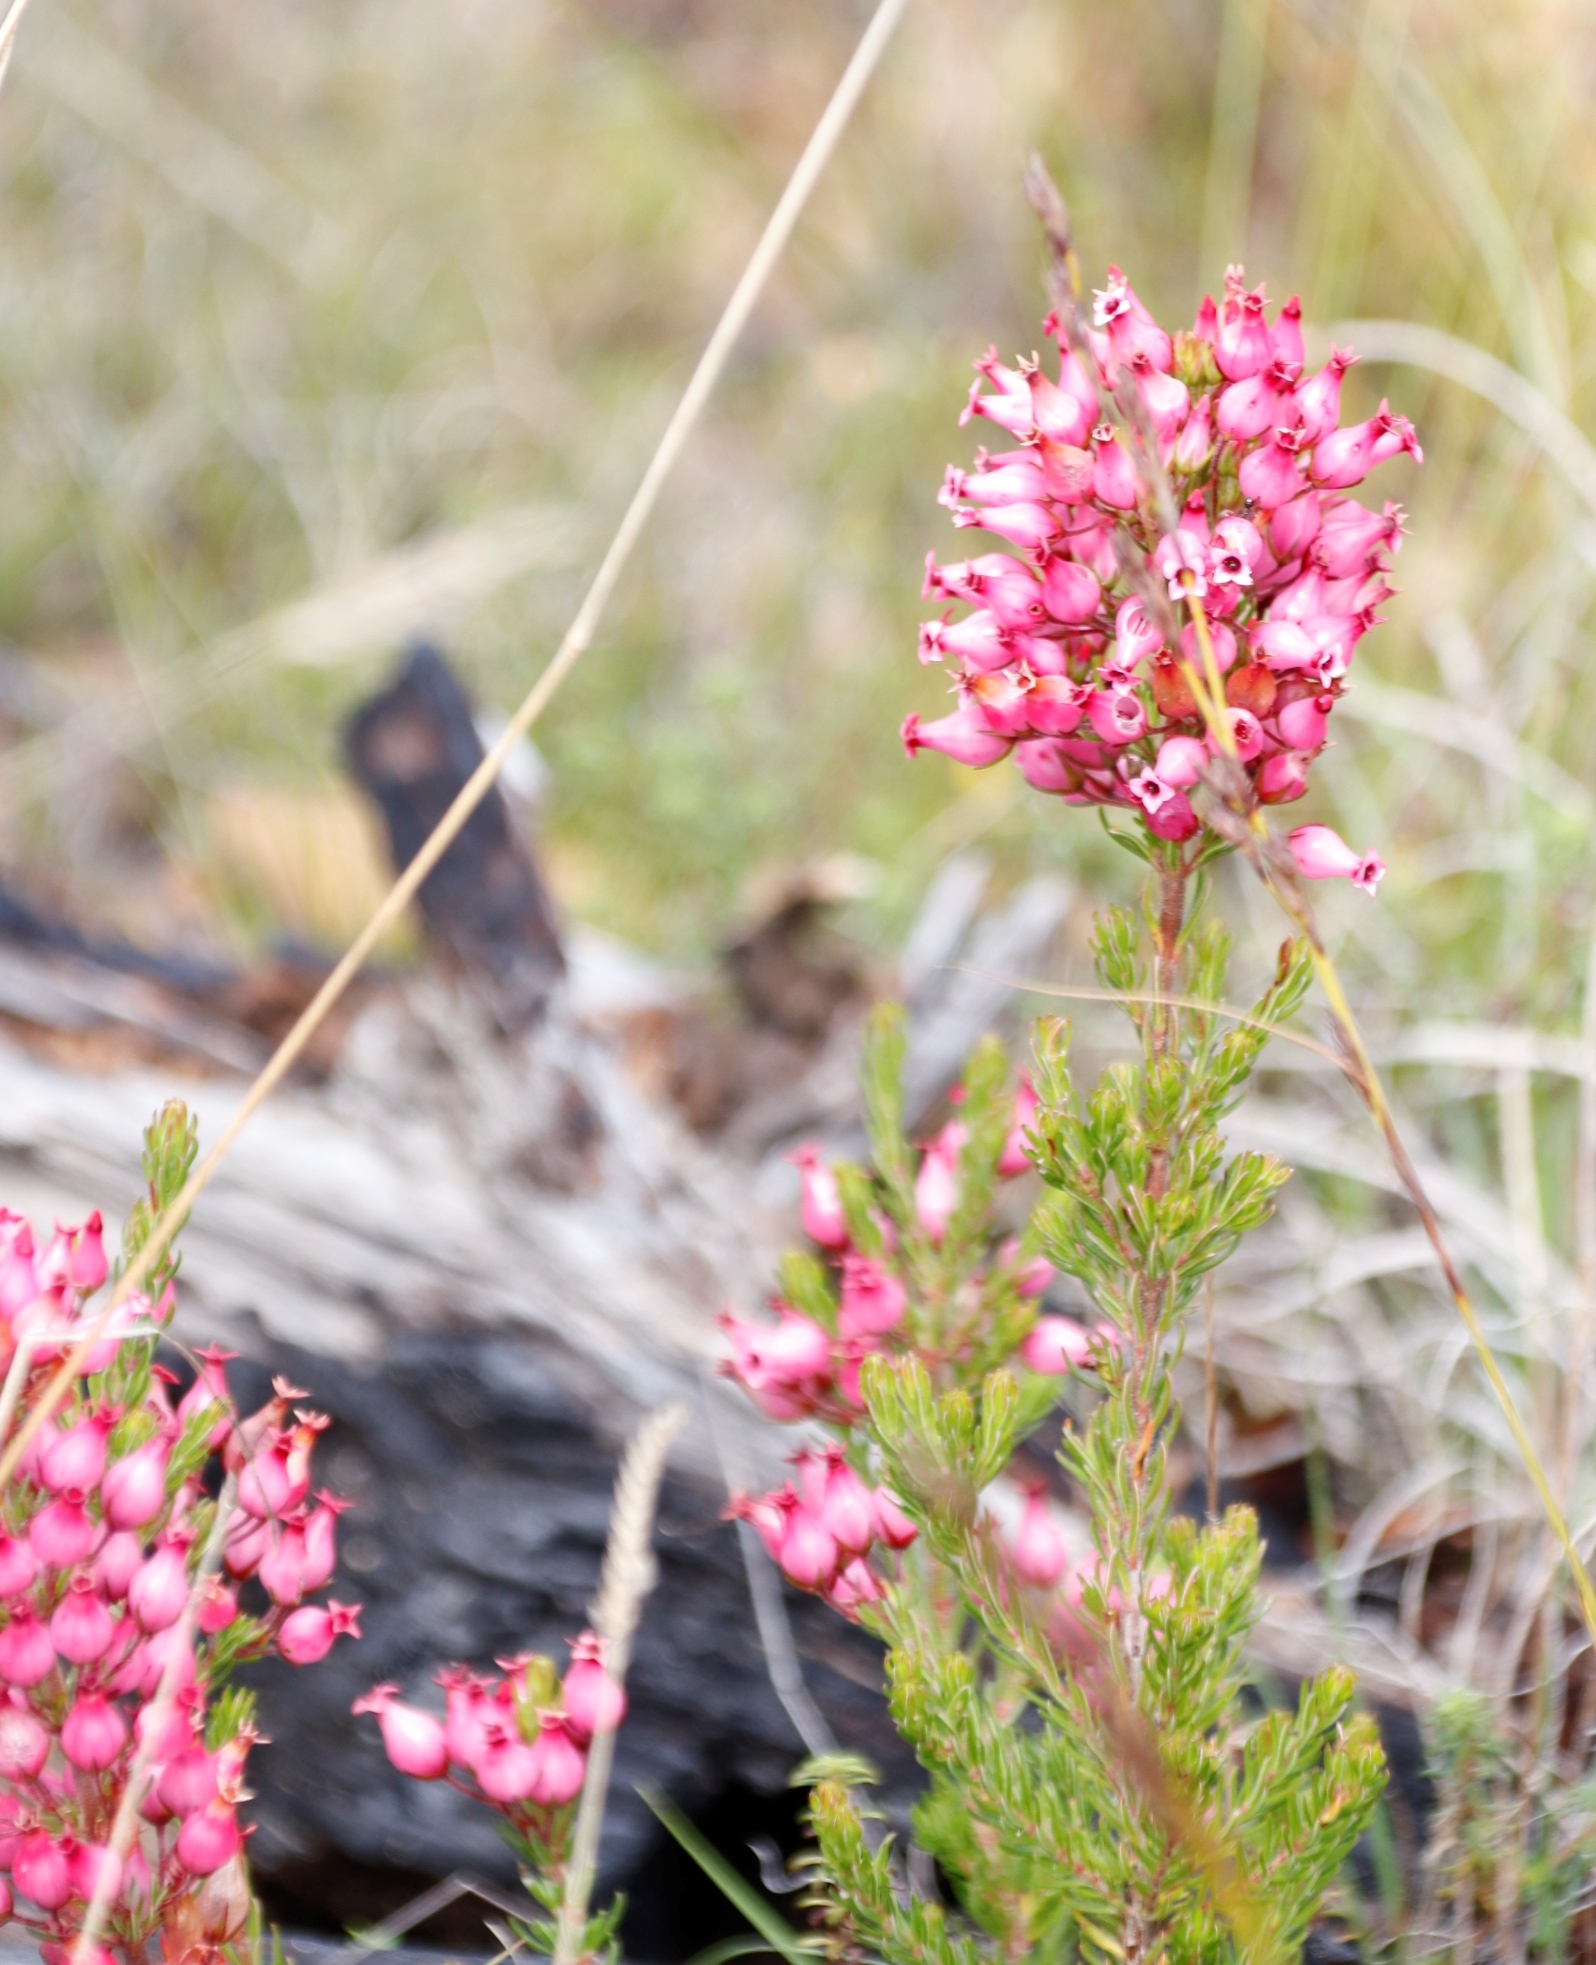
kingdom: Plantae
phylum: Tracheophyta
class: Magnoliopsida
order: Ericales
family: Ericaceae
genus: Erica
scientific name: Erica ventricosa
